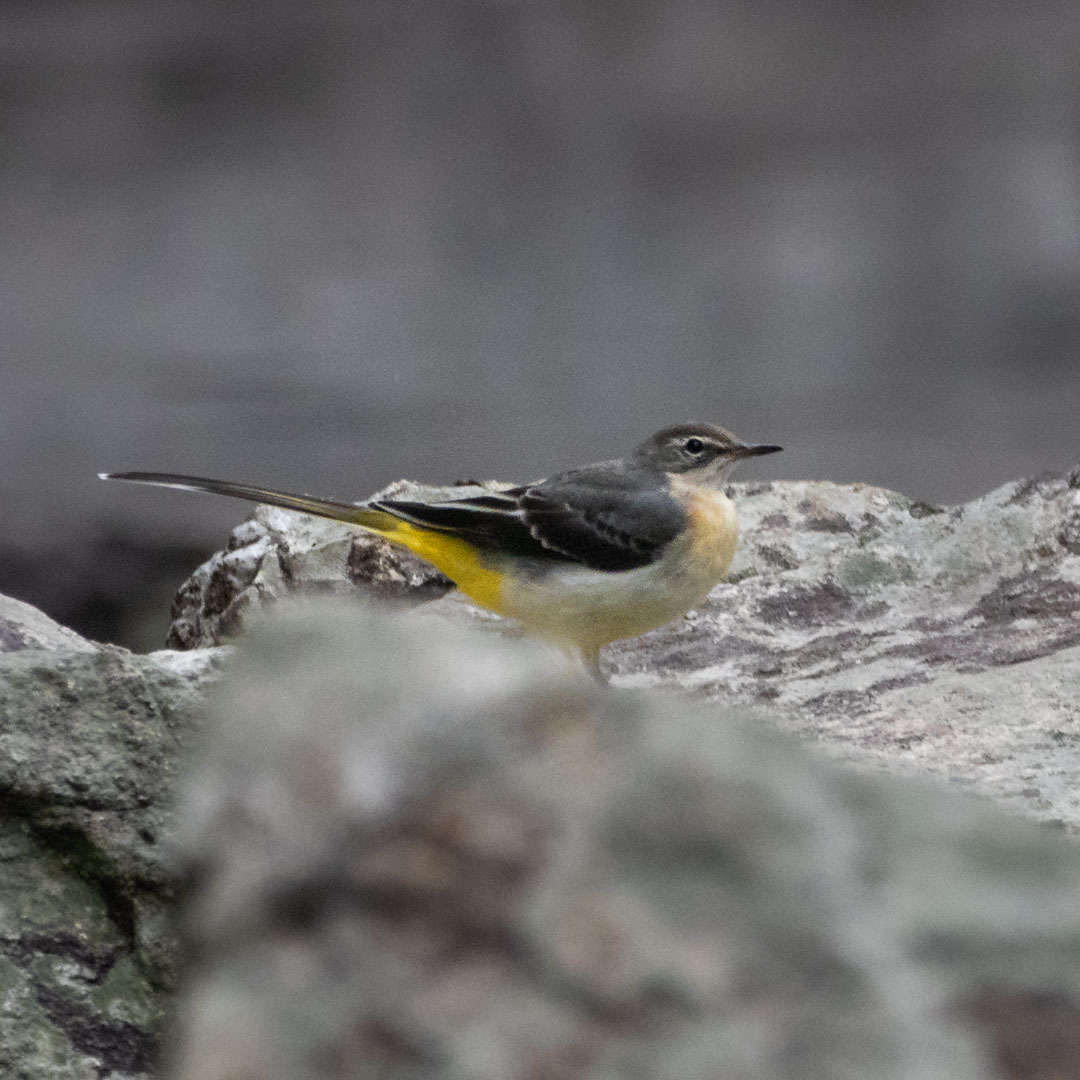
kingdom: Animalia
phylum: Chordata
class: Aves
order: Passeriformes
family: Motacillidae
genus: Motacilla
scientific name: Motacilla cinerea
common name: Grey wagtail
